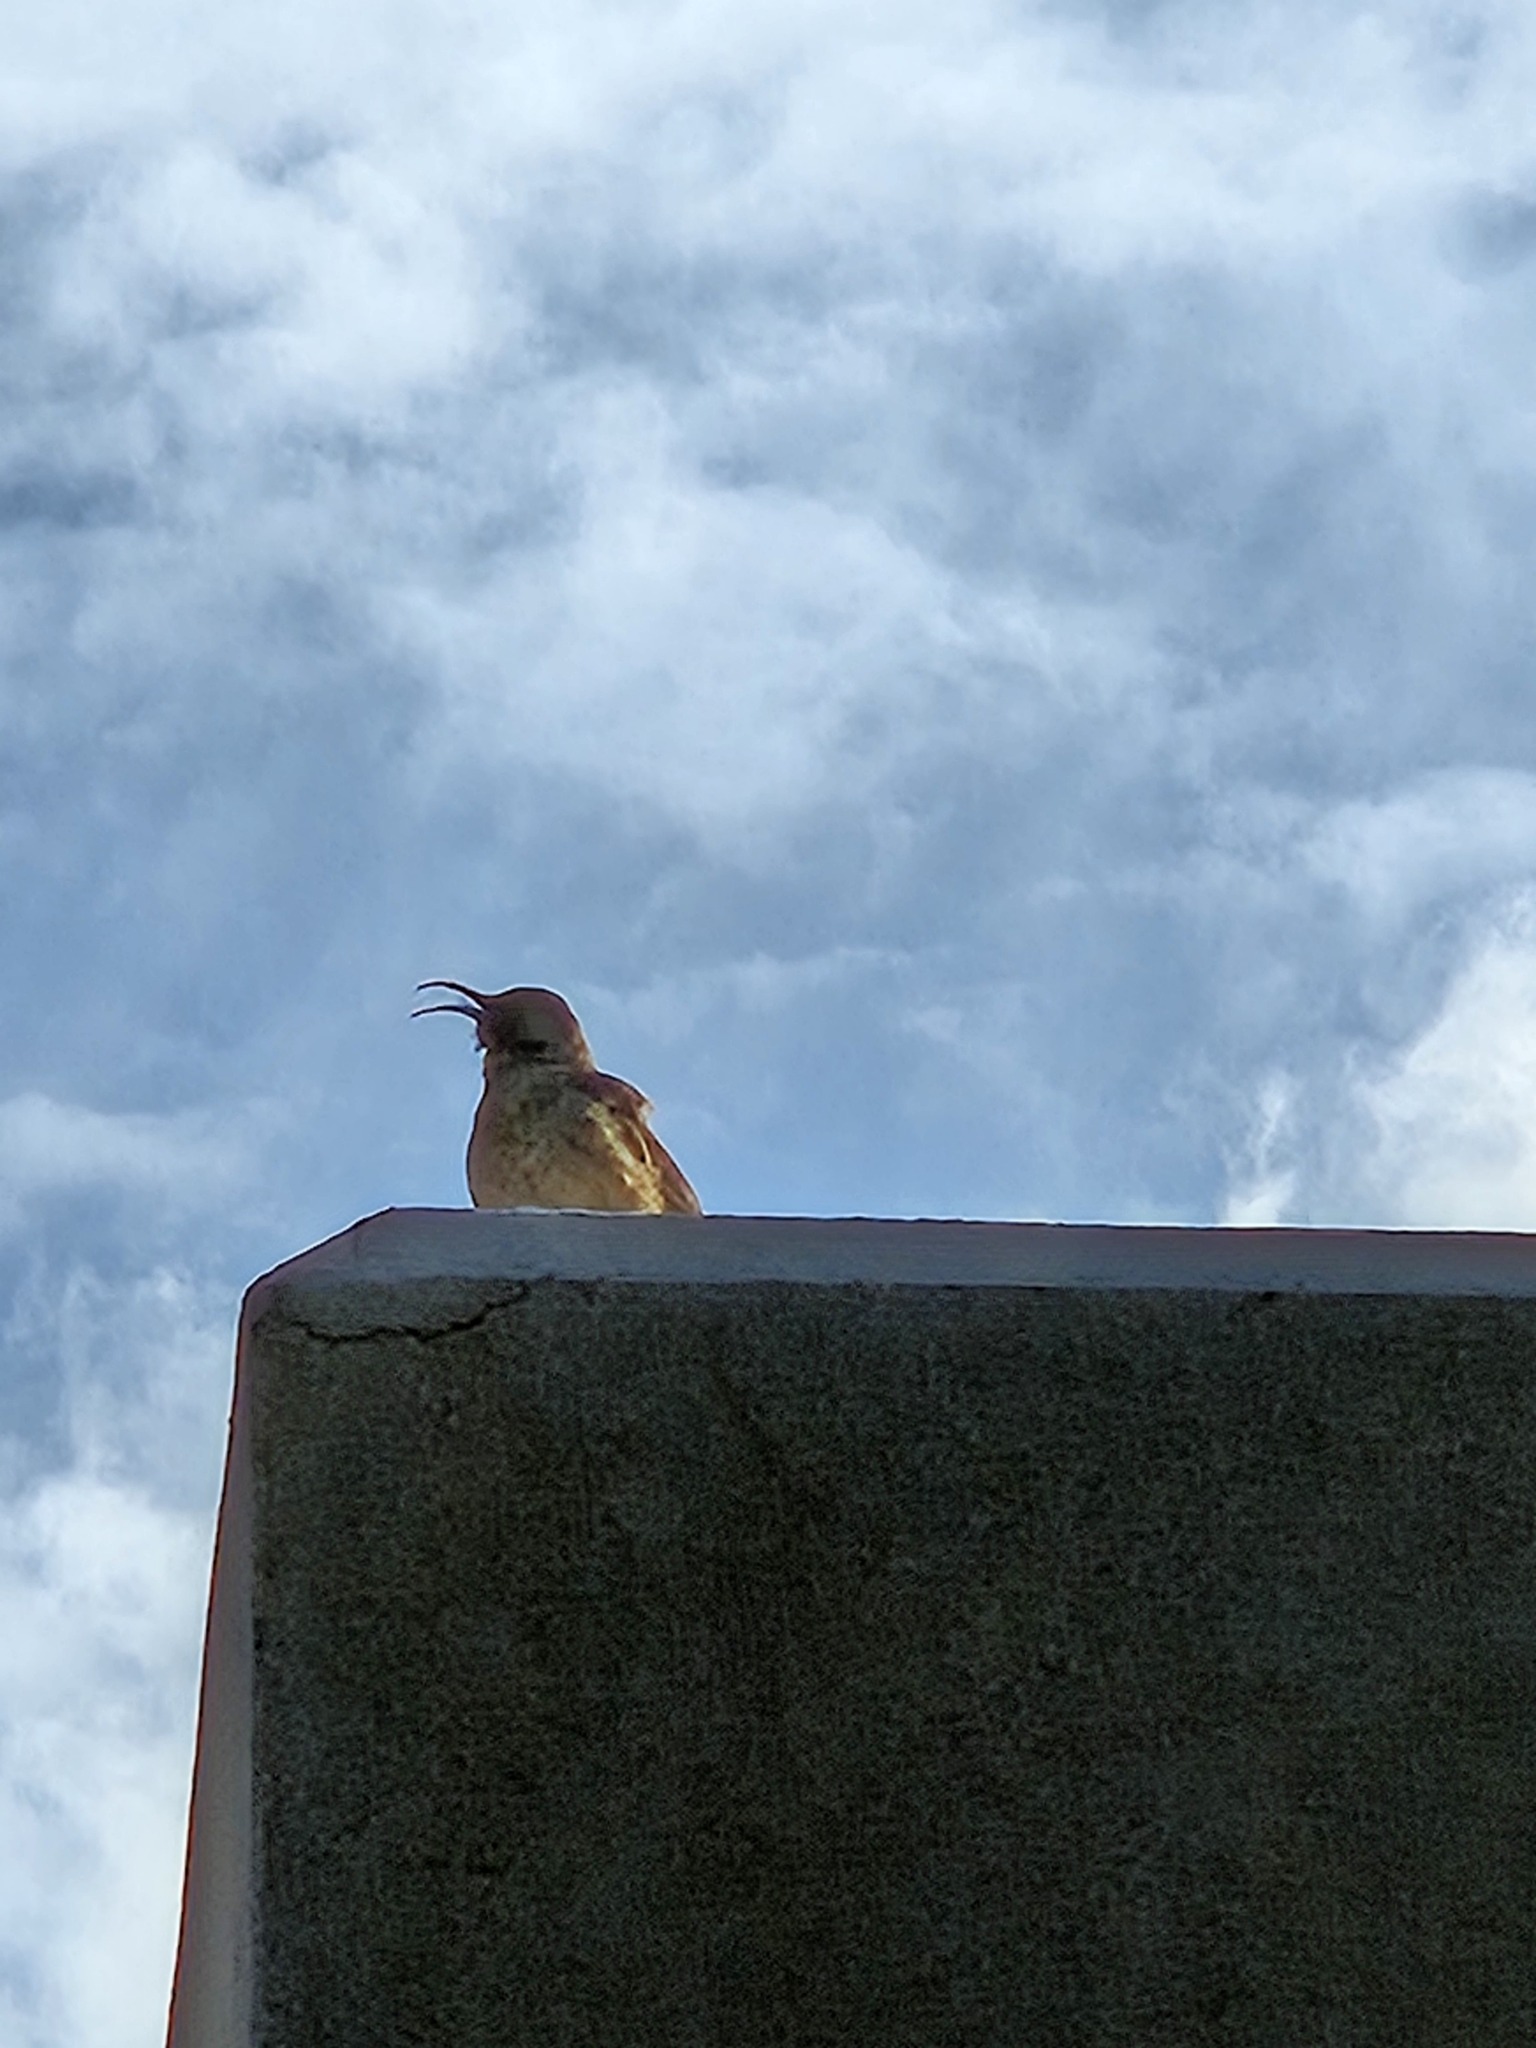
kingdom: Animalia
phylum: Chordata
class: Aves
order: Passeriformes
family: Mimidae
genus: Toxostoma
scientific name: Toxostoma curvirostre
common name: Curve-billed thrasher
